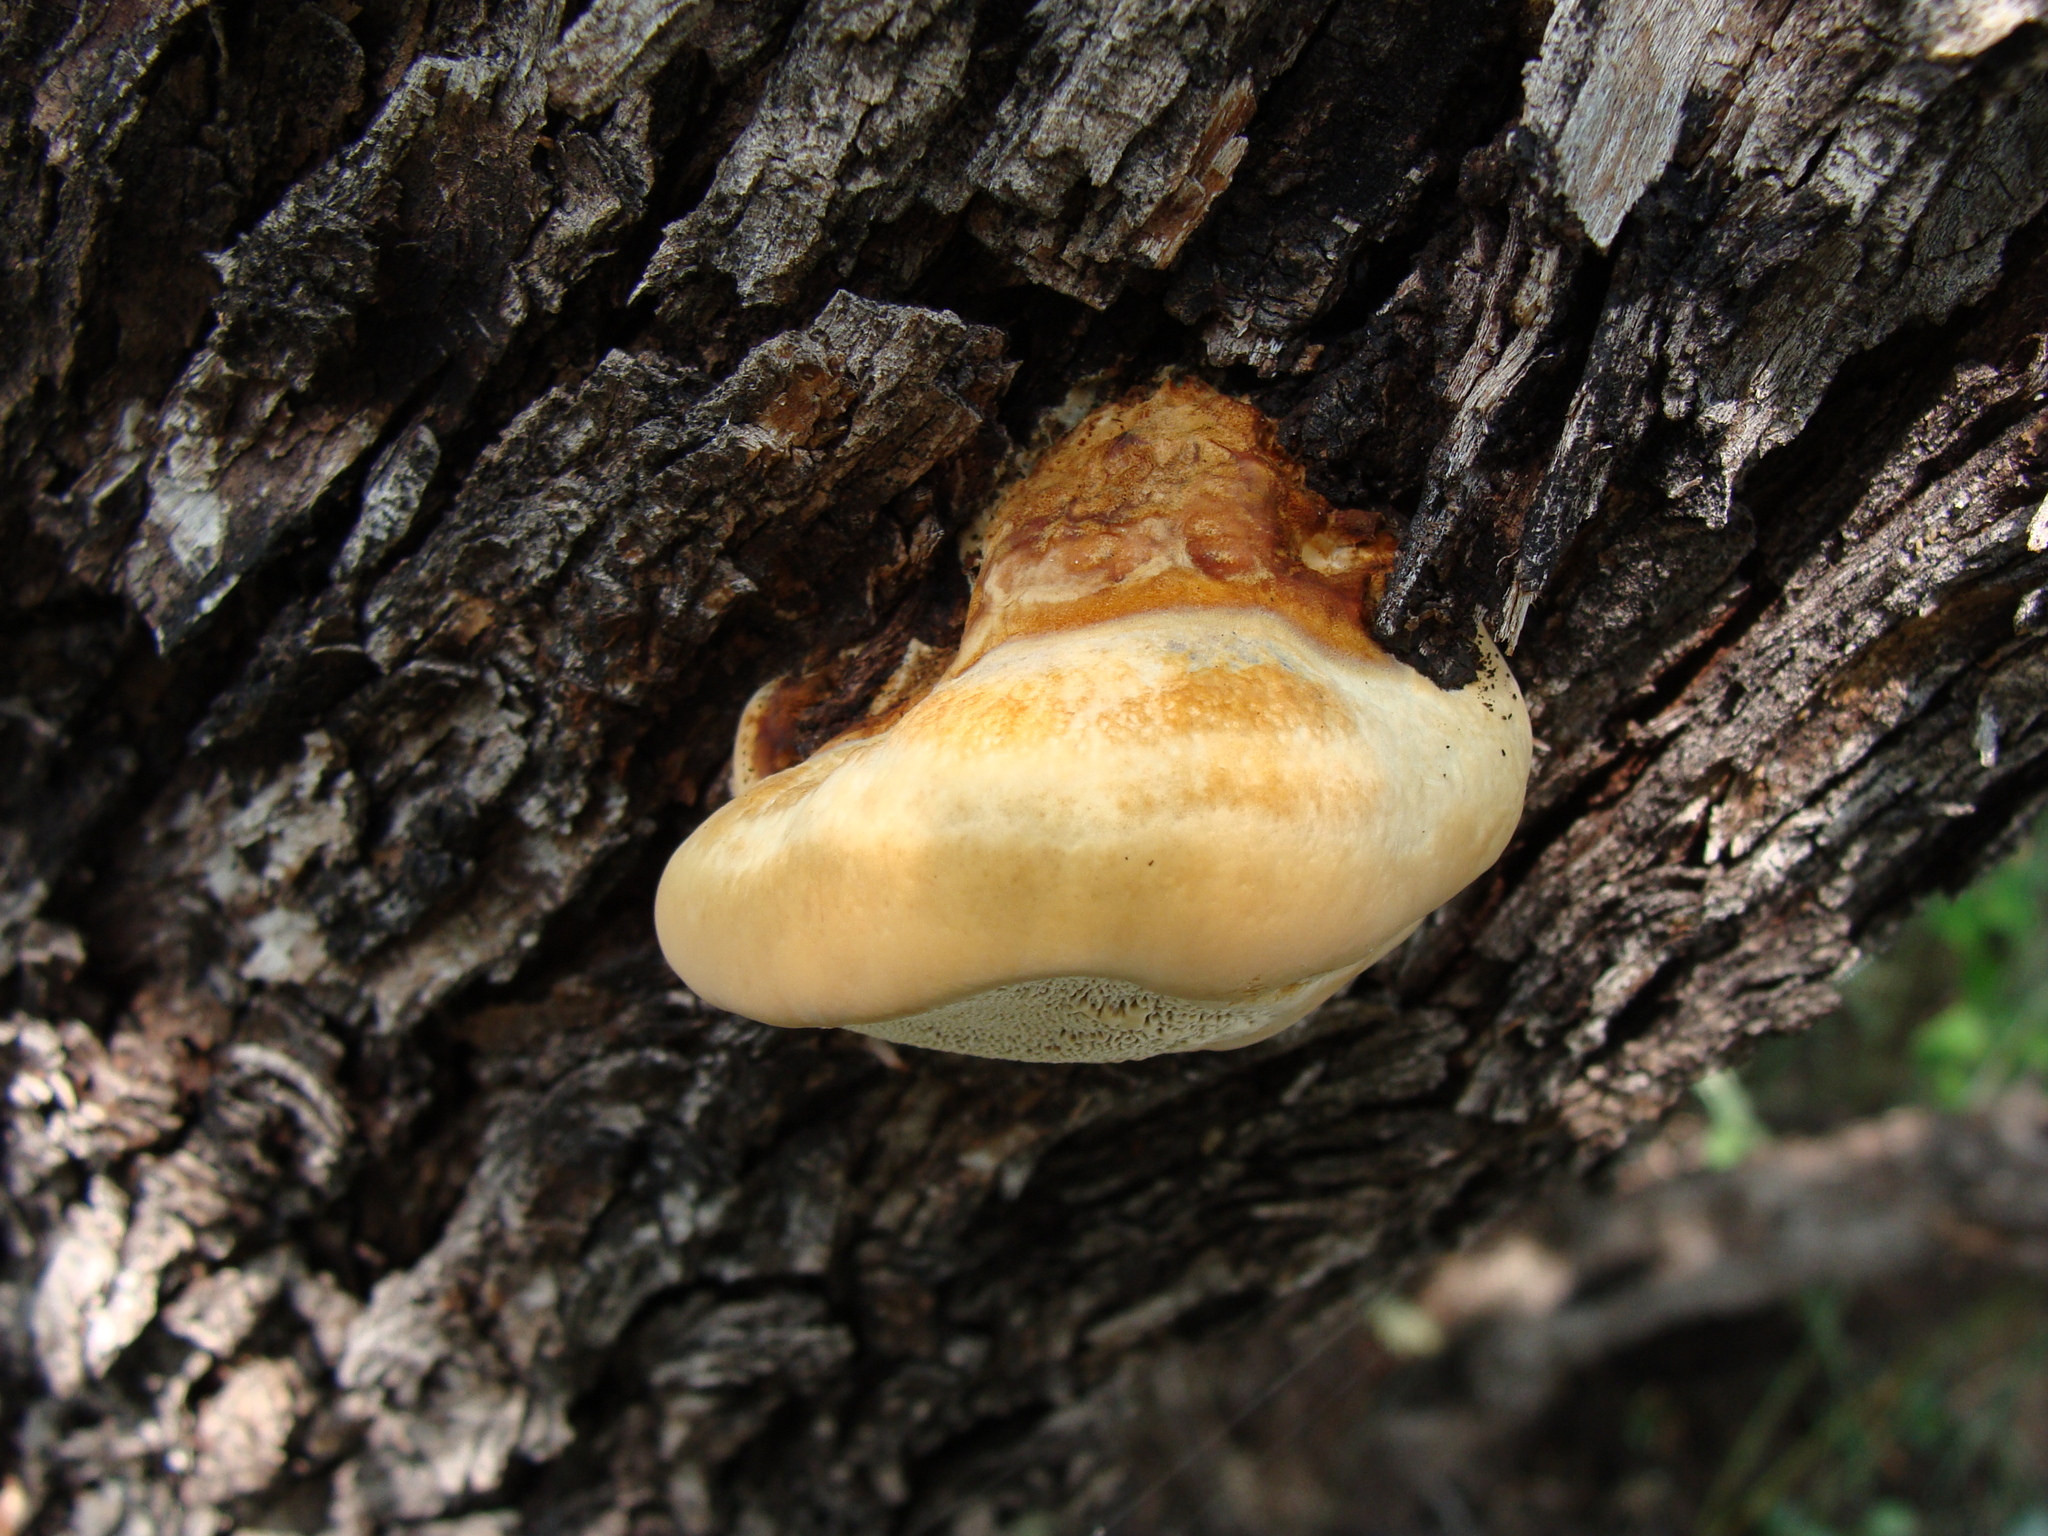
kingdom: Fungi
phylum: Basidiomycota
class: Agaricomycetes
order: Hymenochaetales
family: Hymenochaetaceae
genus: Inocutis
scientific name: Inocutis dryophila
